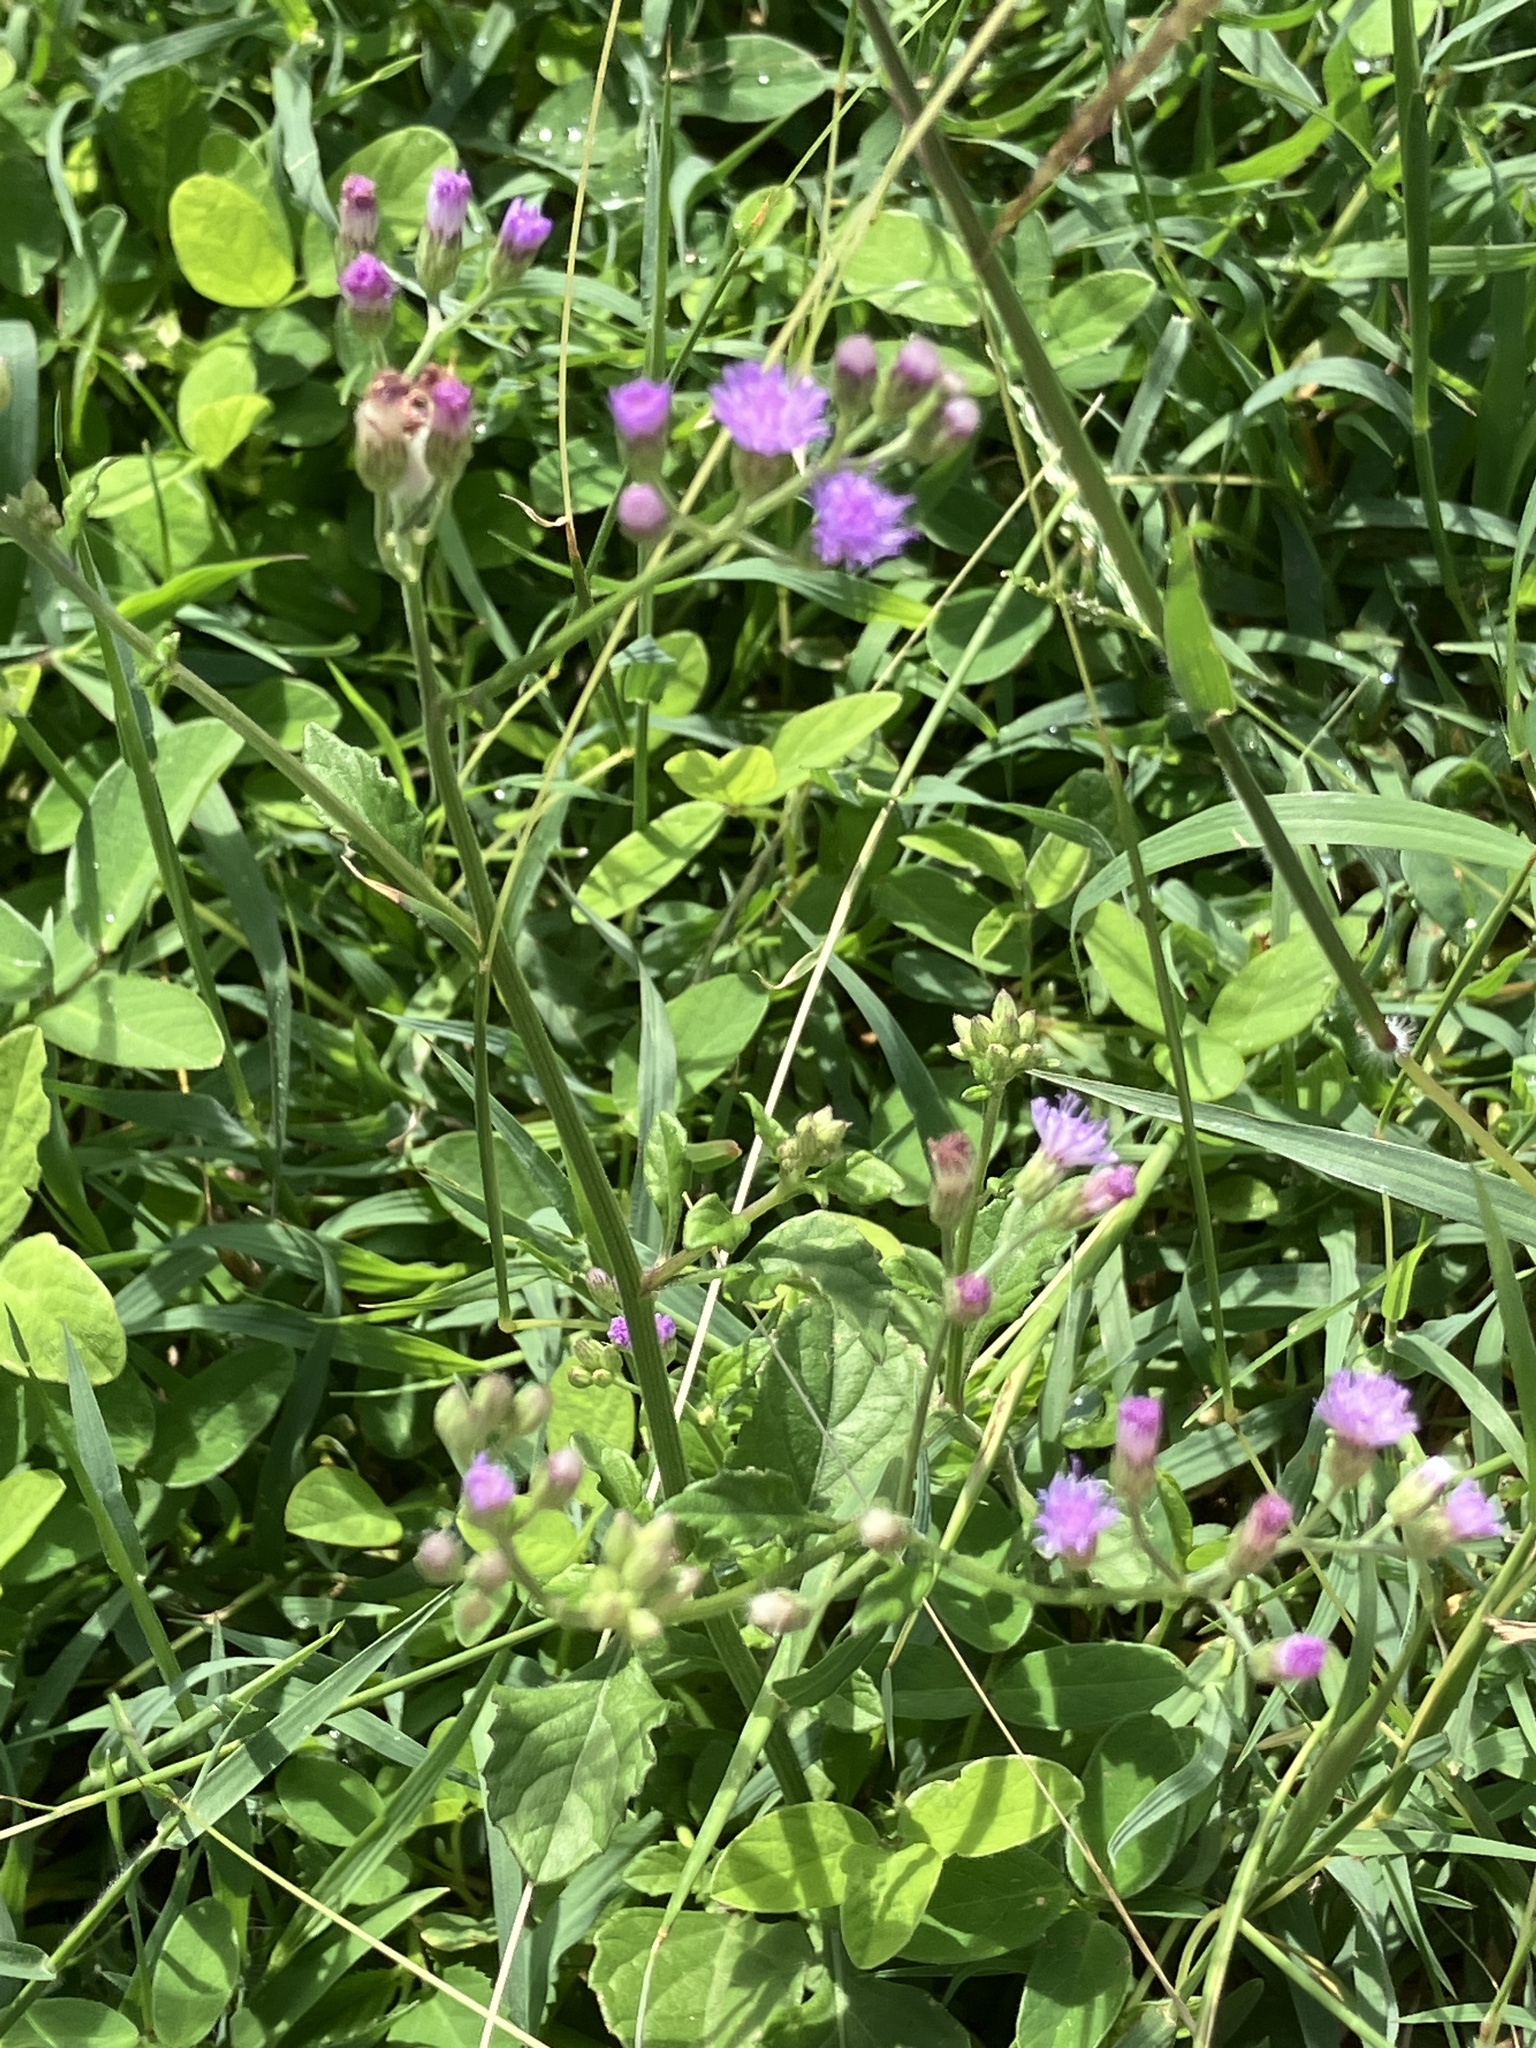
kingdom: Plantae
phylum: Tracheophyta
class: Magnoliopsida
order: Asterales
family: Asteraceae
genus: Cyanthillium
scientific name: Cyanthillium cinereum
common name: Little ironweed
